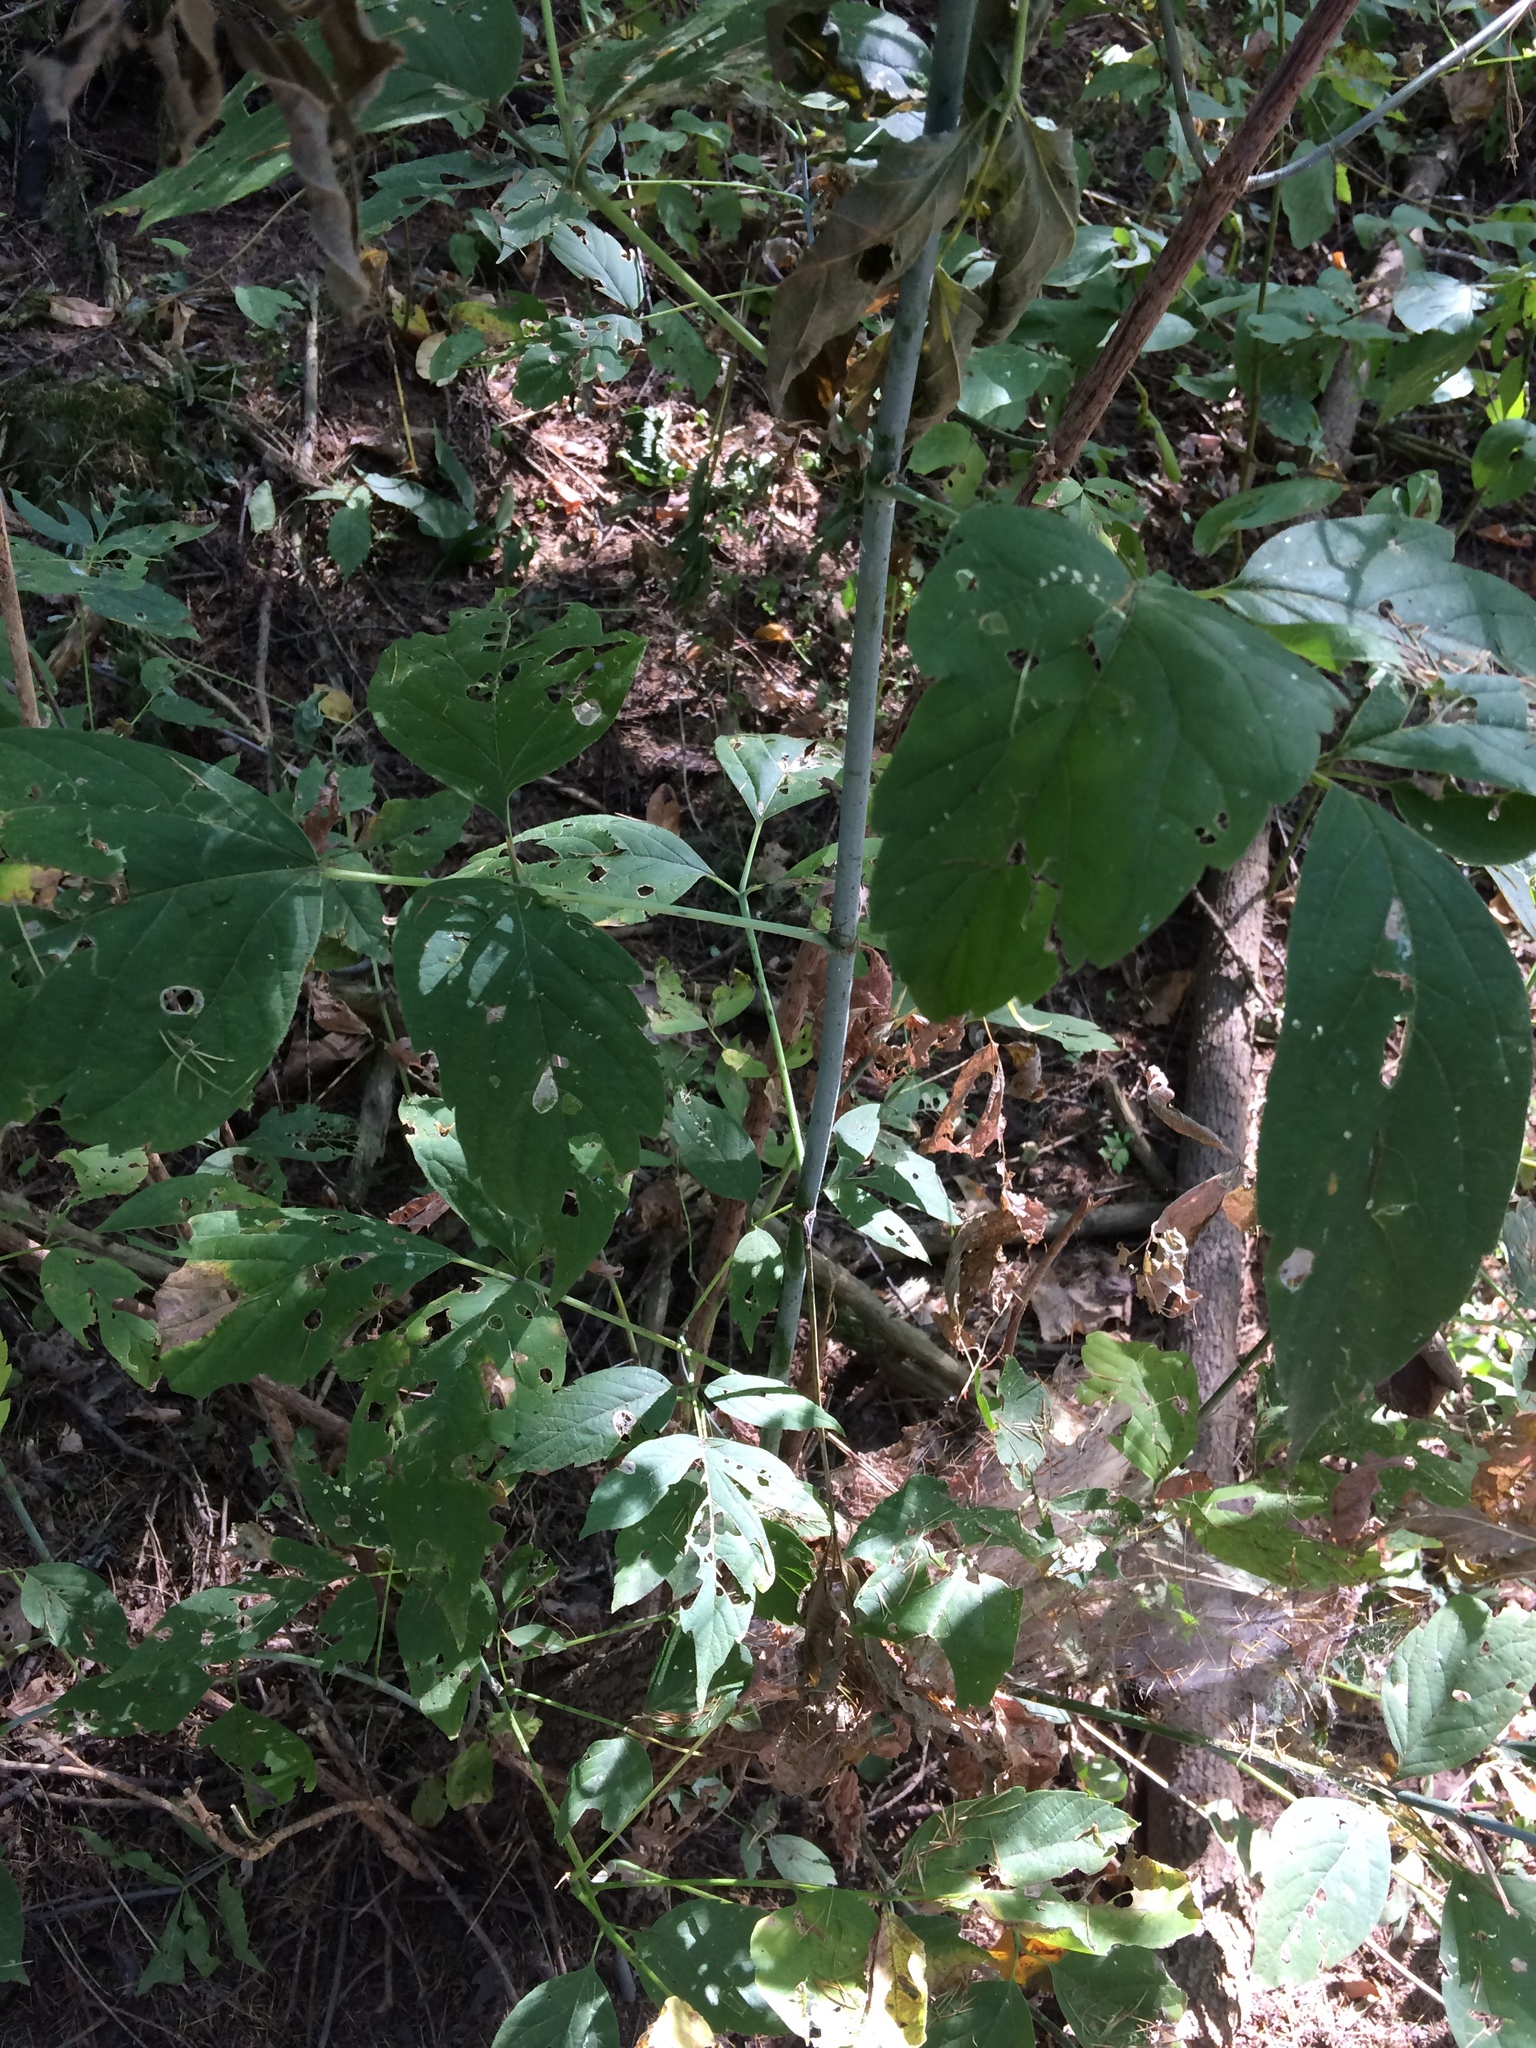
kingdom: Plantae
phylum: Tracheophyta
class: Magnoliopsida
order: Sapindales
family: Sapindaceae
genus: Acer
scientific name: Acer negundo
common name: Ashleaf maple
